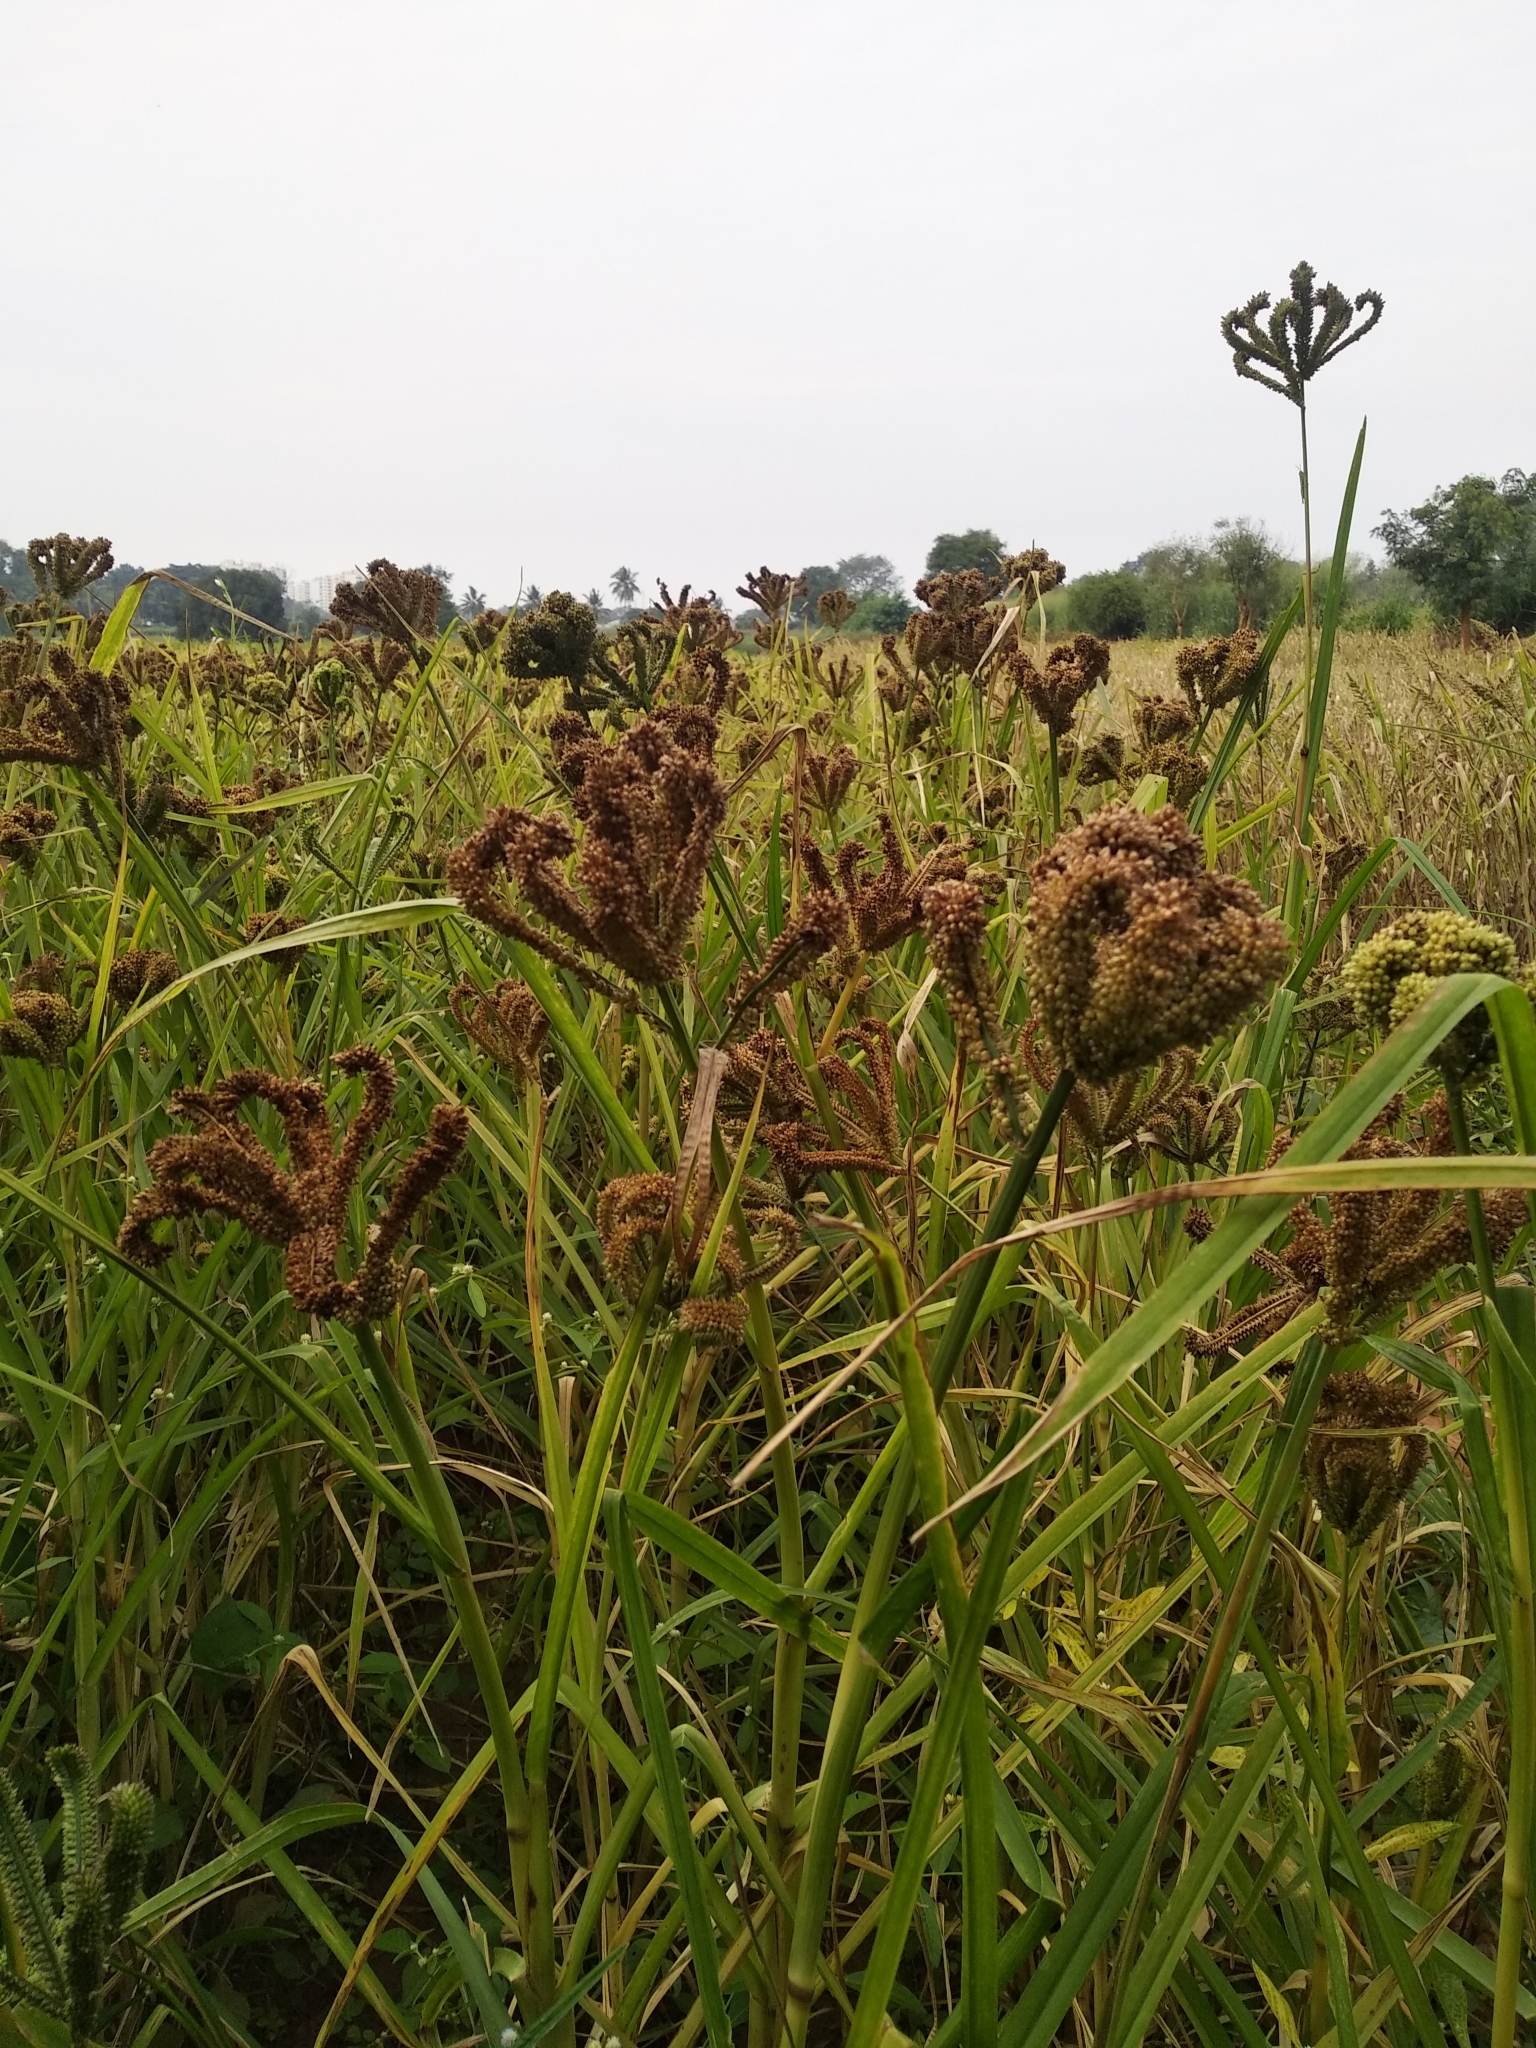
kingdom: Plantae
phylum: Tracheophyta
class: Liliopsida
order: Poales
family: Poaceae
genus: Eleusine
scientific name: Eleusine coracana
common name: Finger millet
